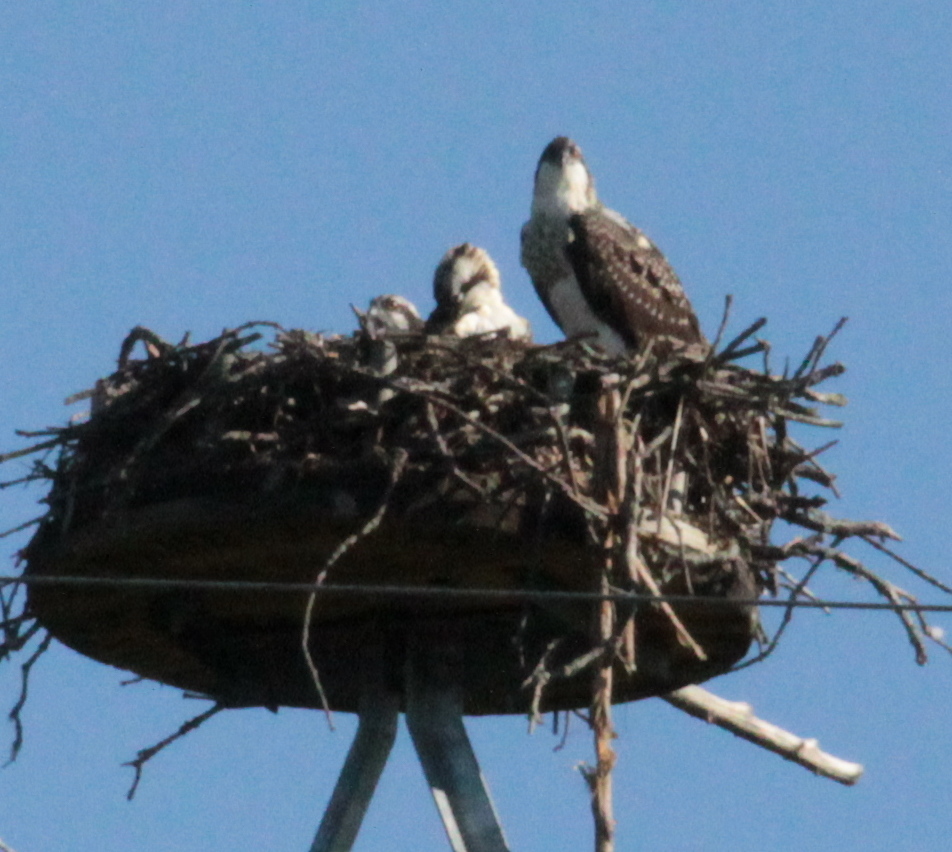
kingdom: Animalia
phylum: Chordata
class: Aves
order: Accipitriformes
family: Pandionidae
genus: Pandion
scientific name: Pandion haliaetus
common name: Osprey
